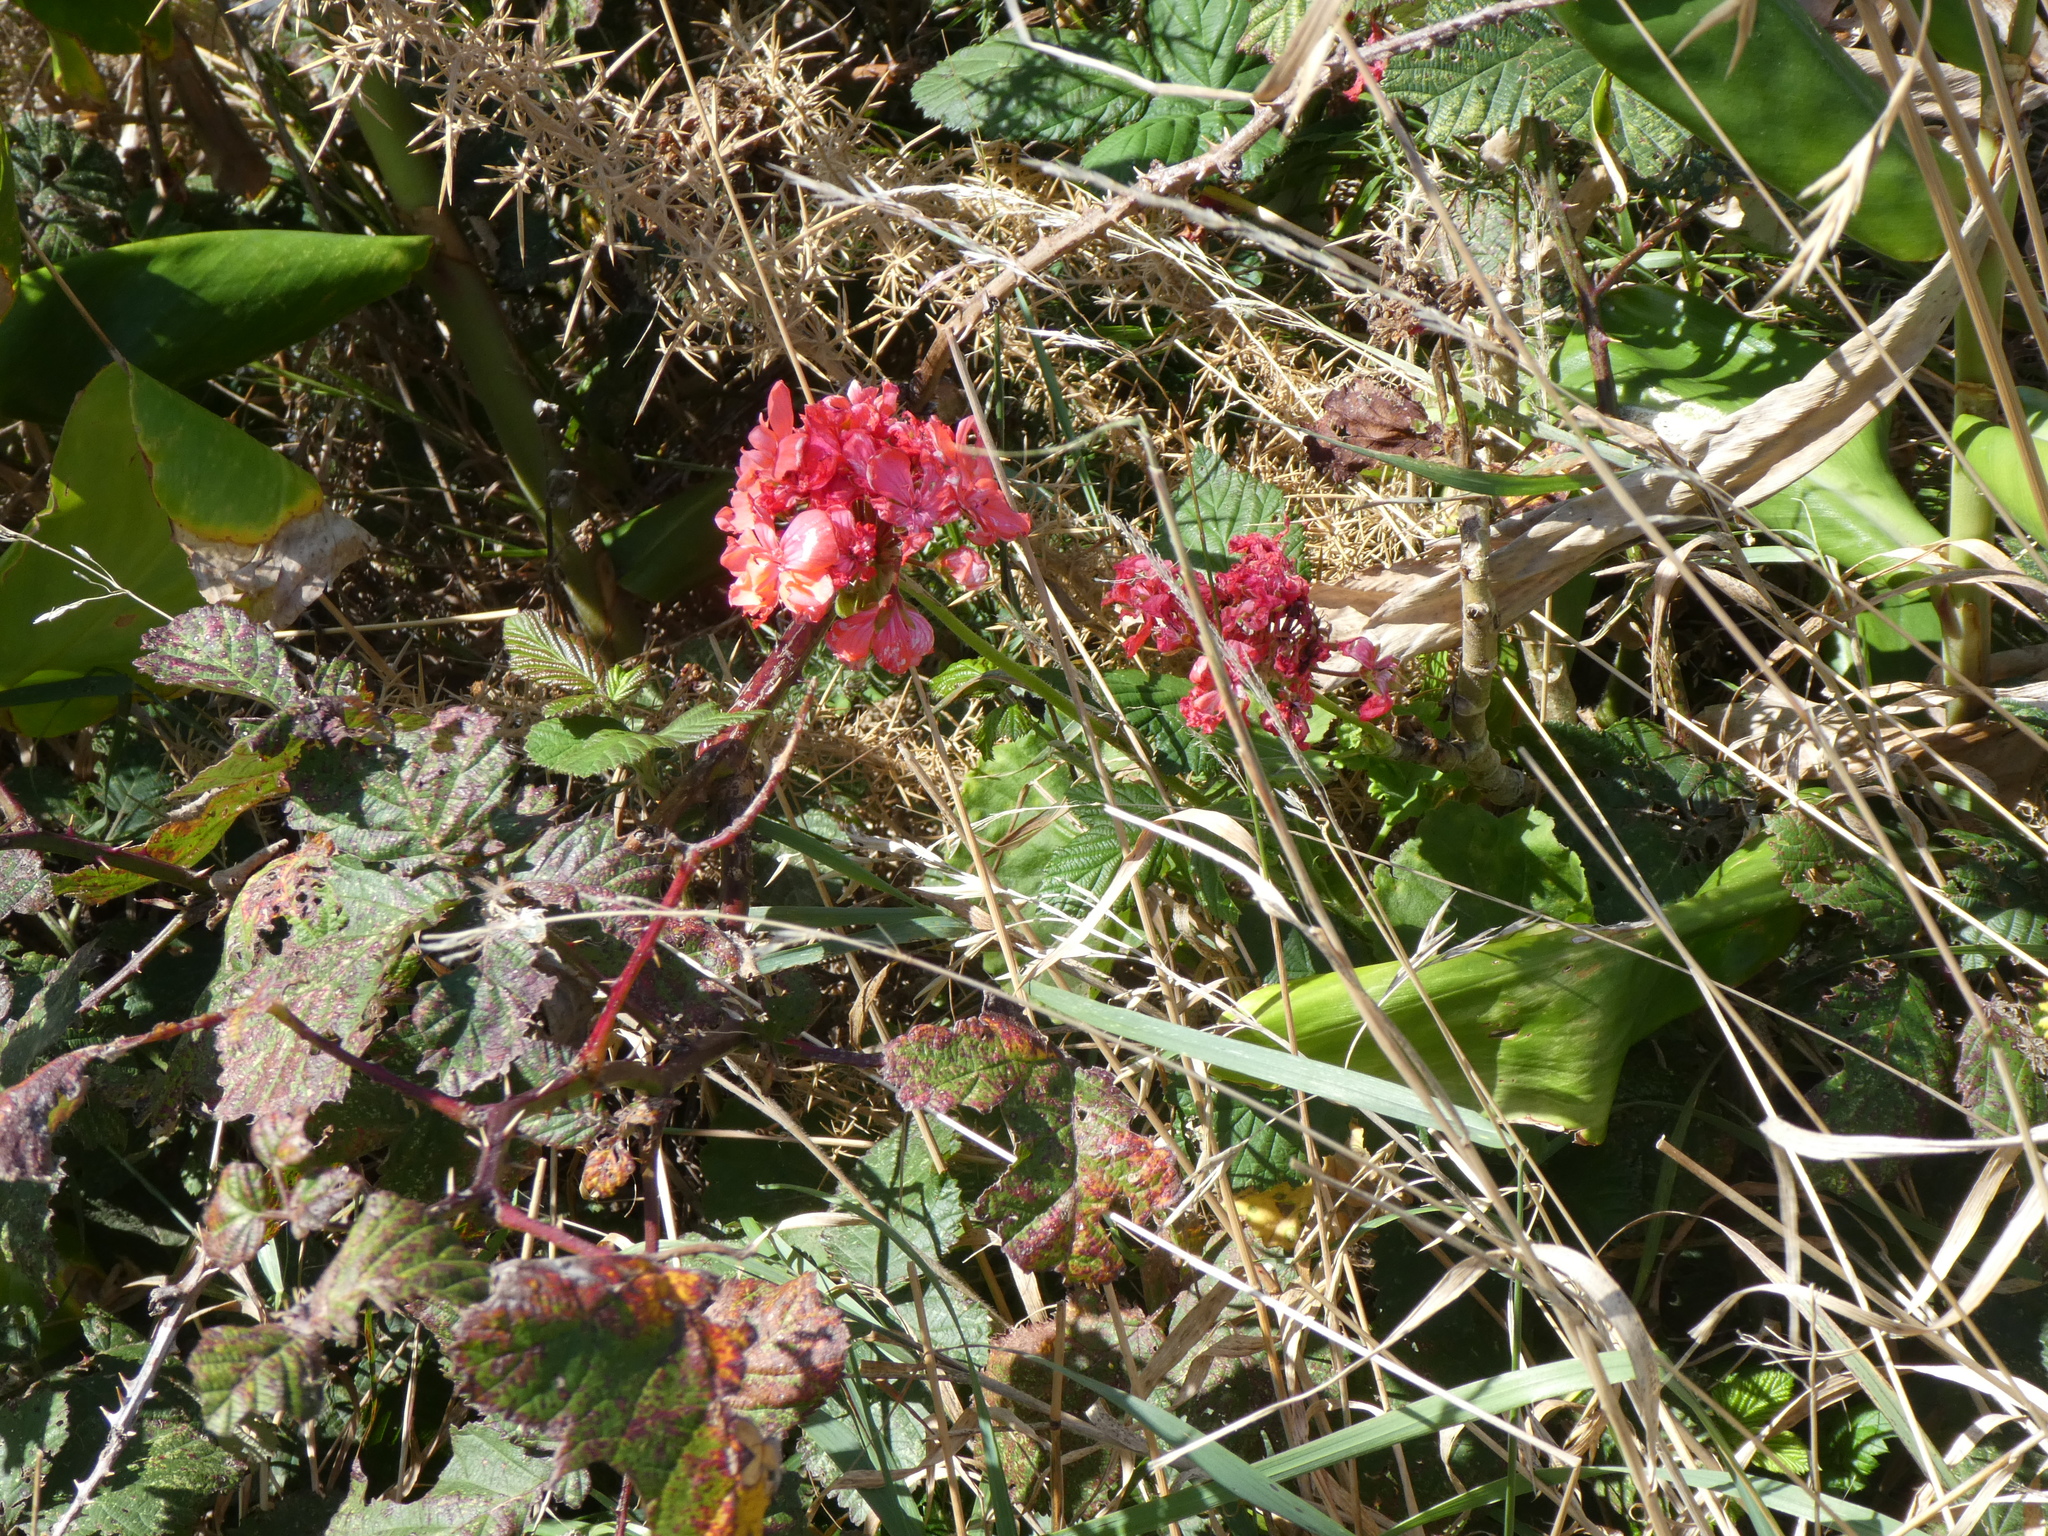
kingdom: Plantae
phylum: Tracheophyta
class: Magnoliopsida
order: Geraniales
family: Geraniaceae
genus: Pelargonium
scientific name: Pelargonium hybridum
